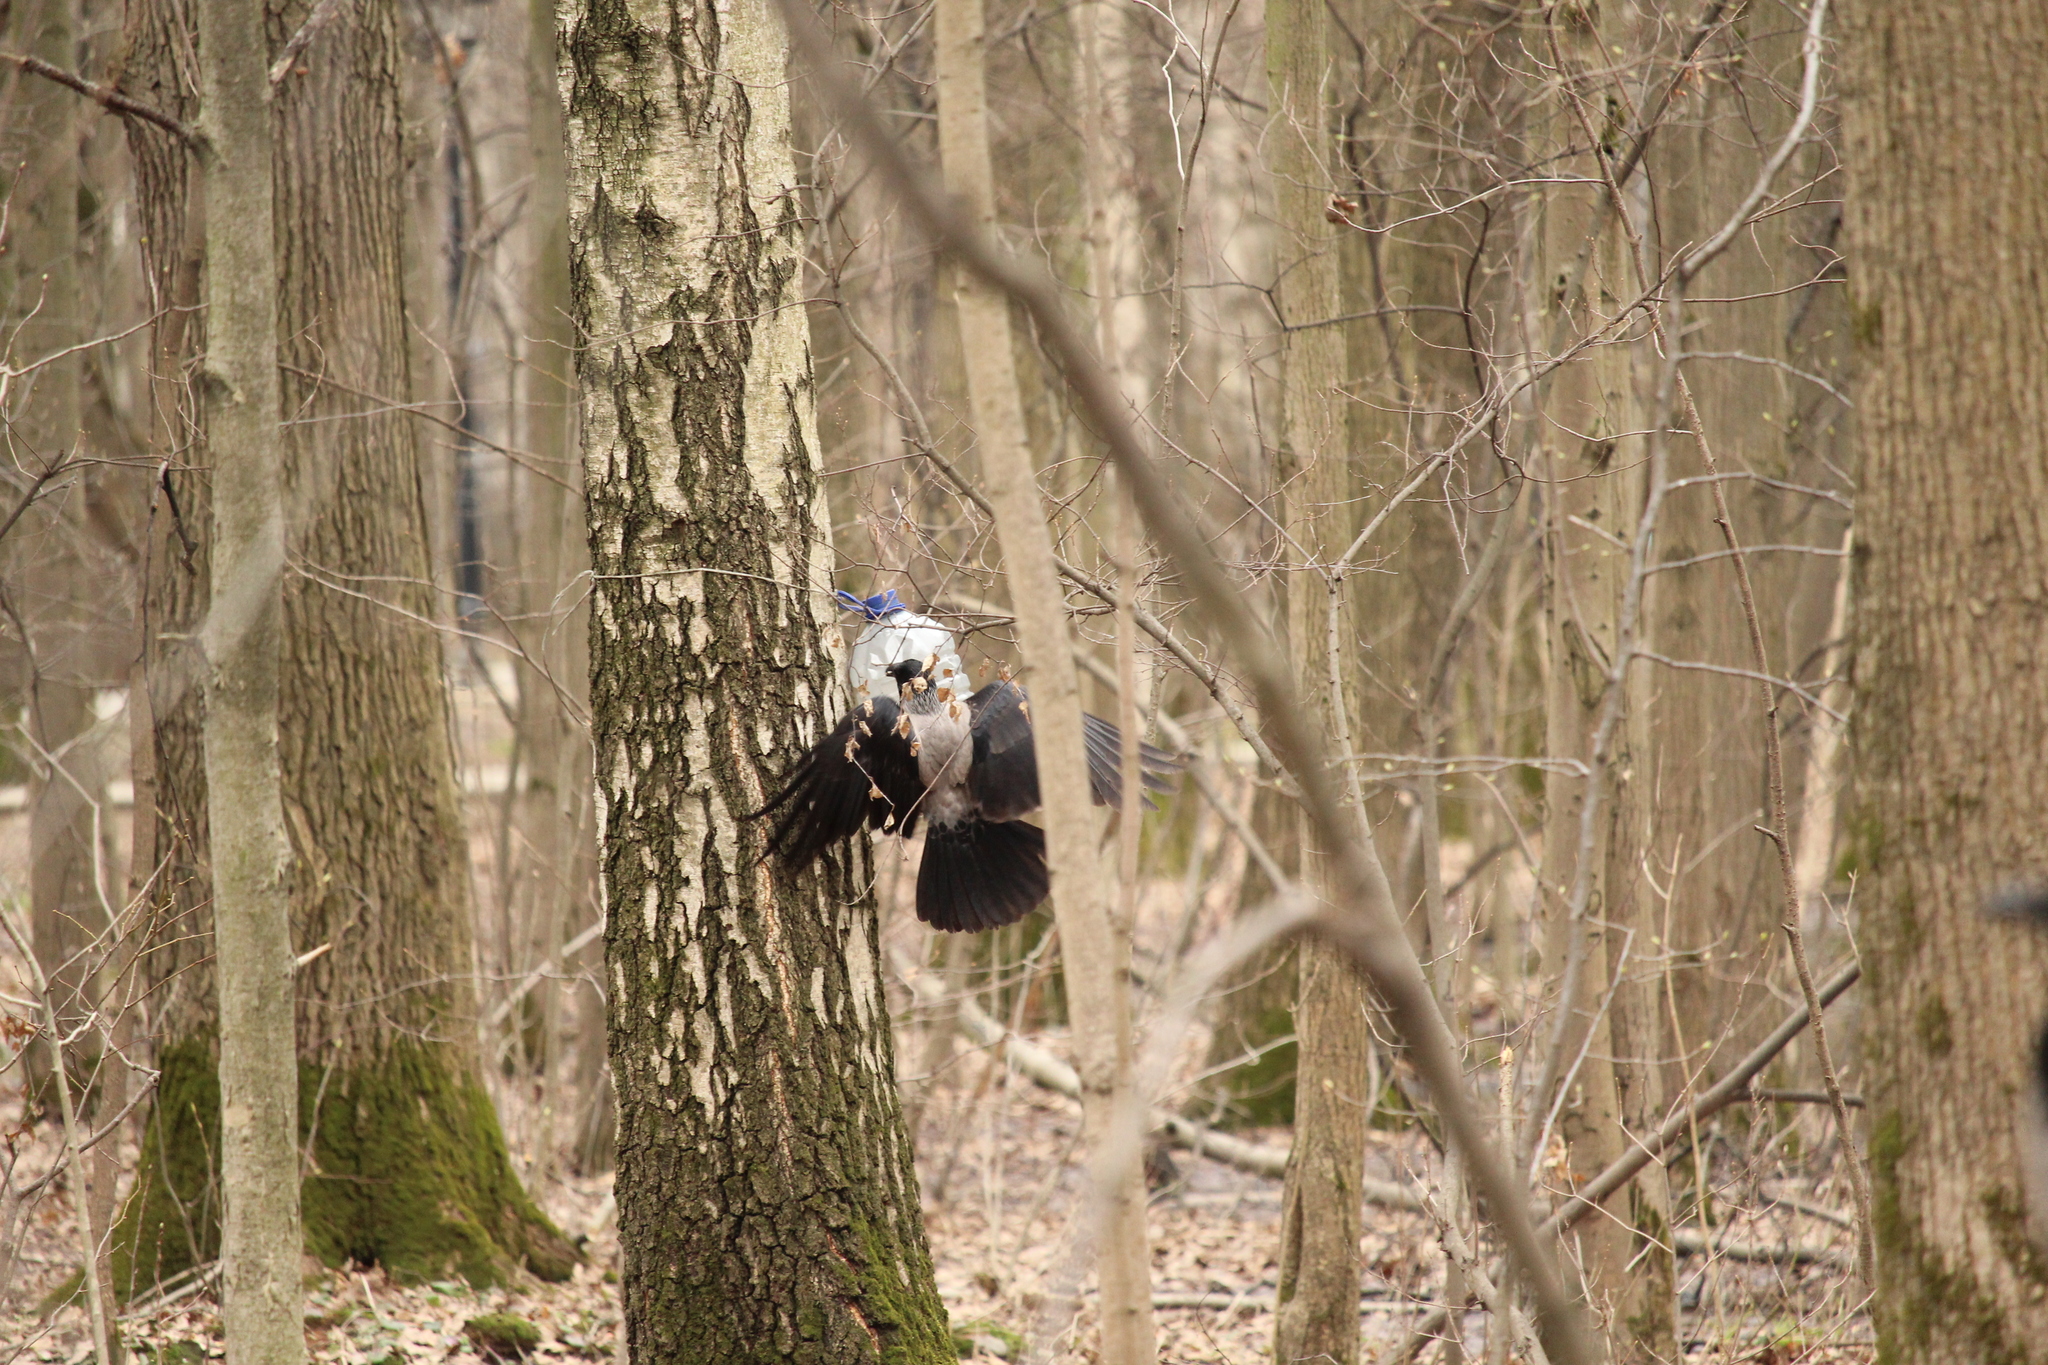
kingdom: Animalia
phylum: Chordata
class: Aves
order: Passeriformes
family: Corvidae
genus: Corvus
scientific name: Corvus cornix
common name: Hooded crow
